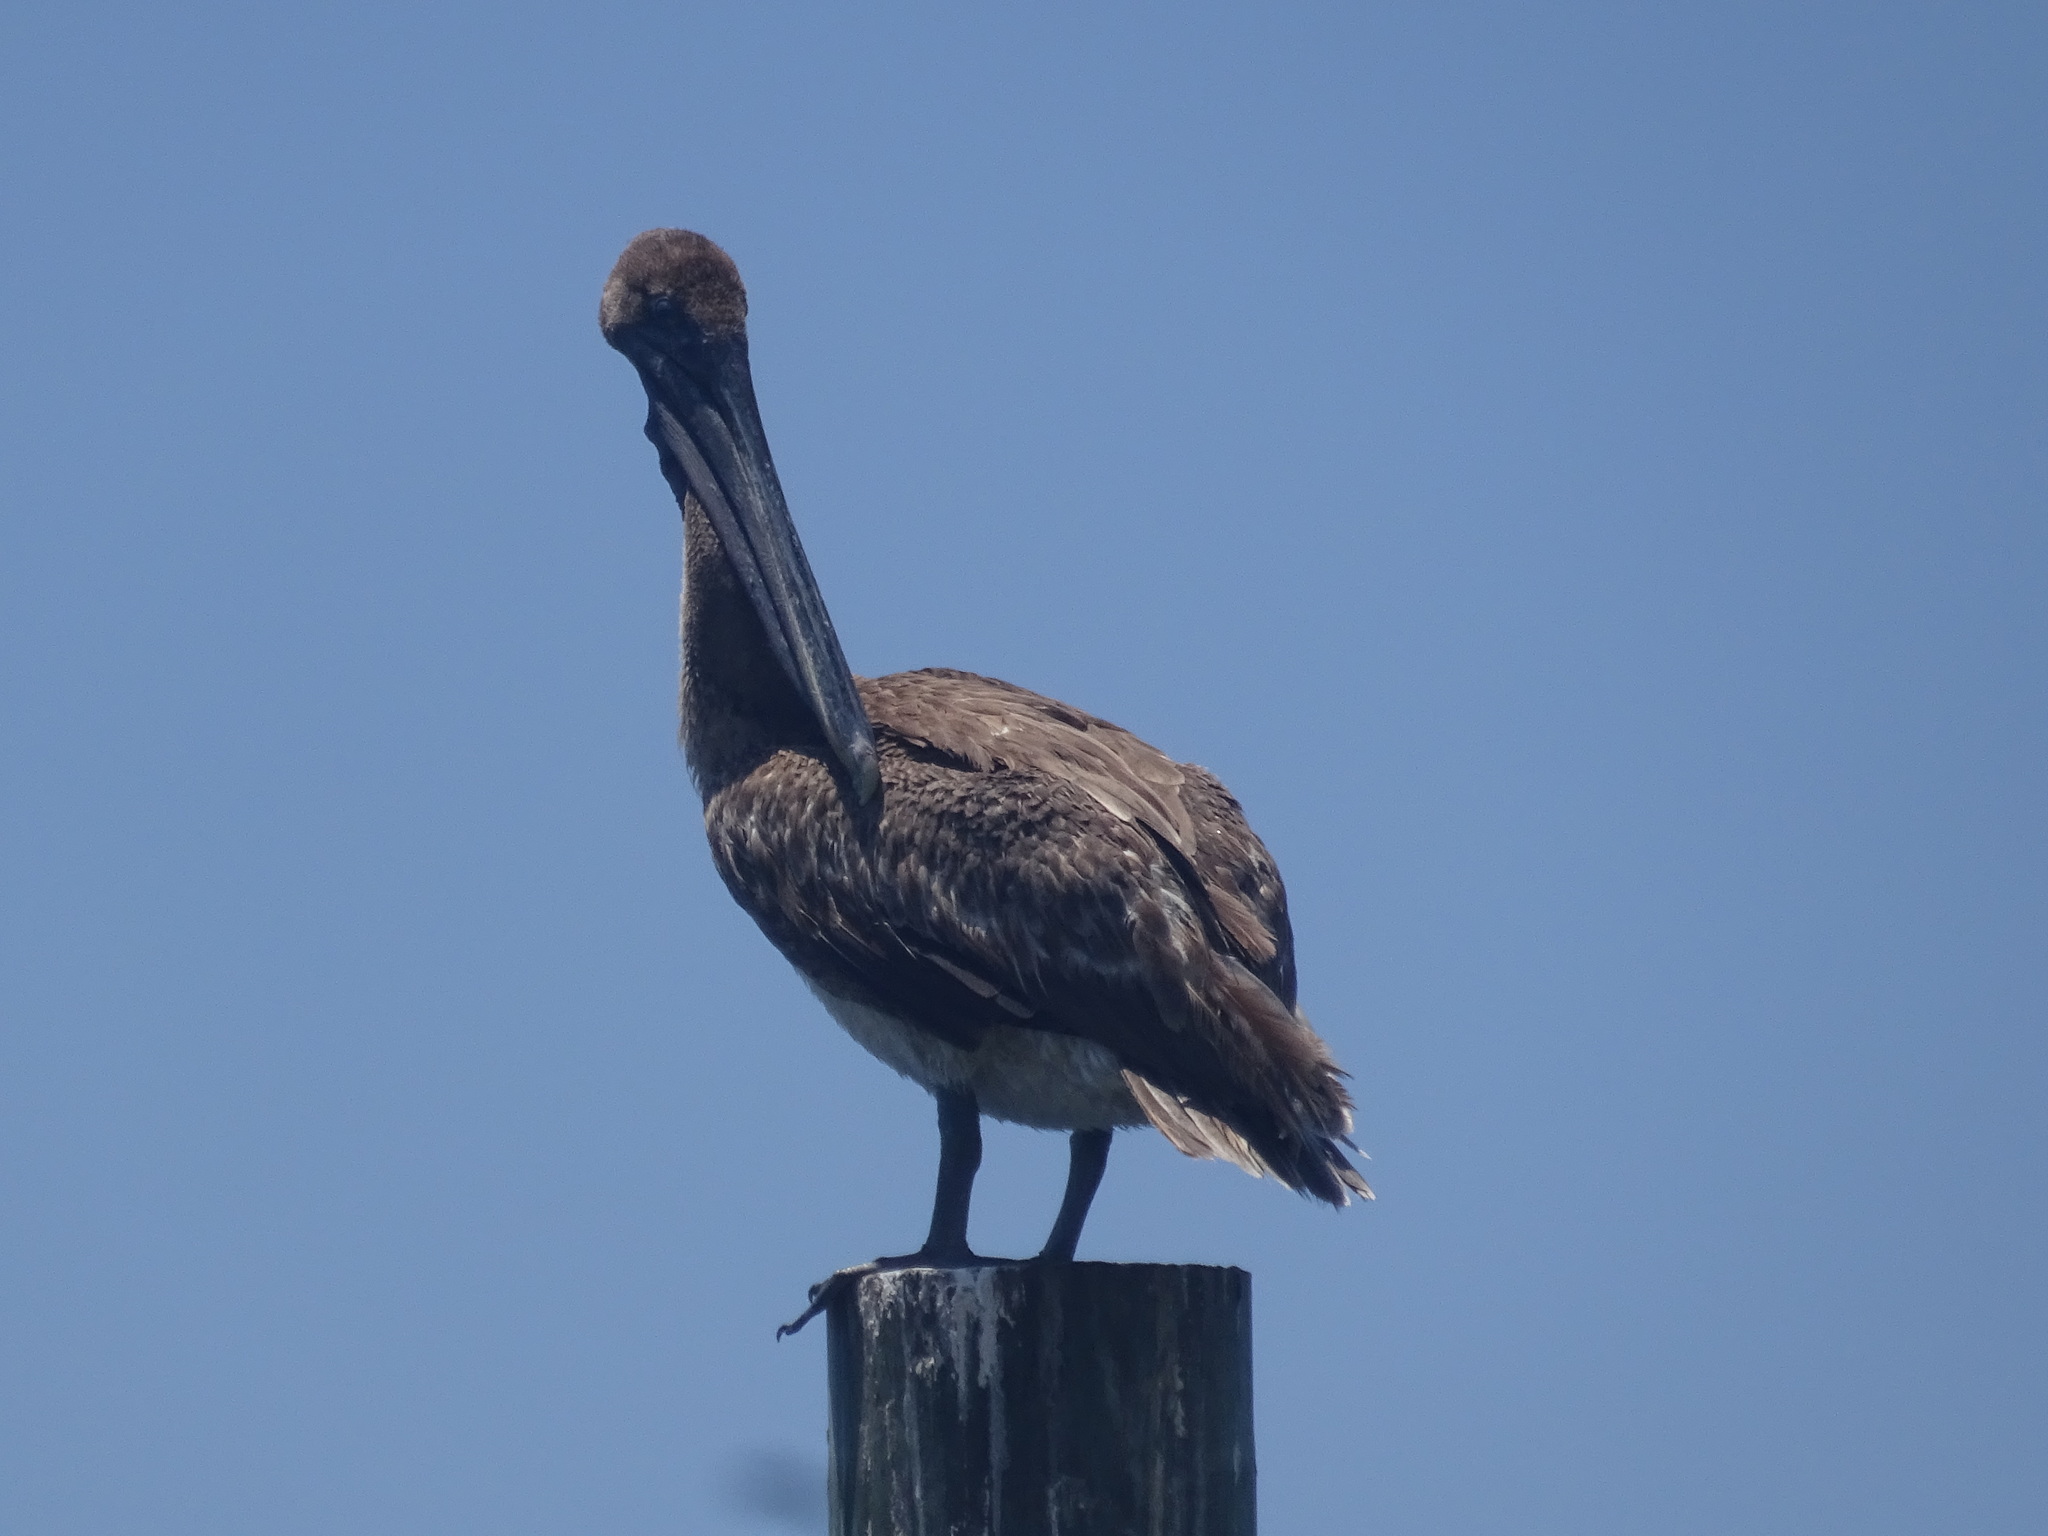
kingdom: Animalia
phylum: Chordata
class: Aves
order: Pelecaniformes
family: Pelecanidae
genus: Pelecanus
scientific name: Pelecanus occidentalis
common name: Brown pelican
